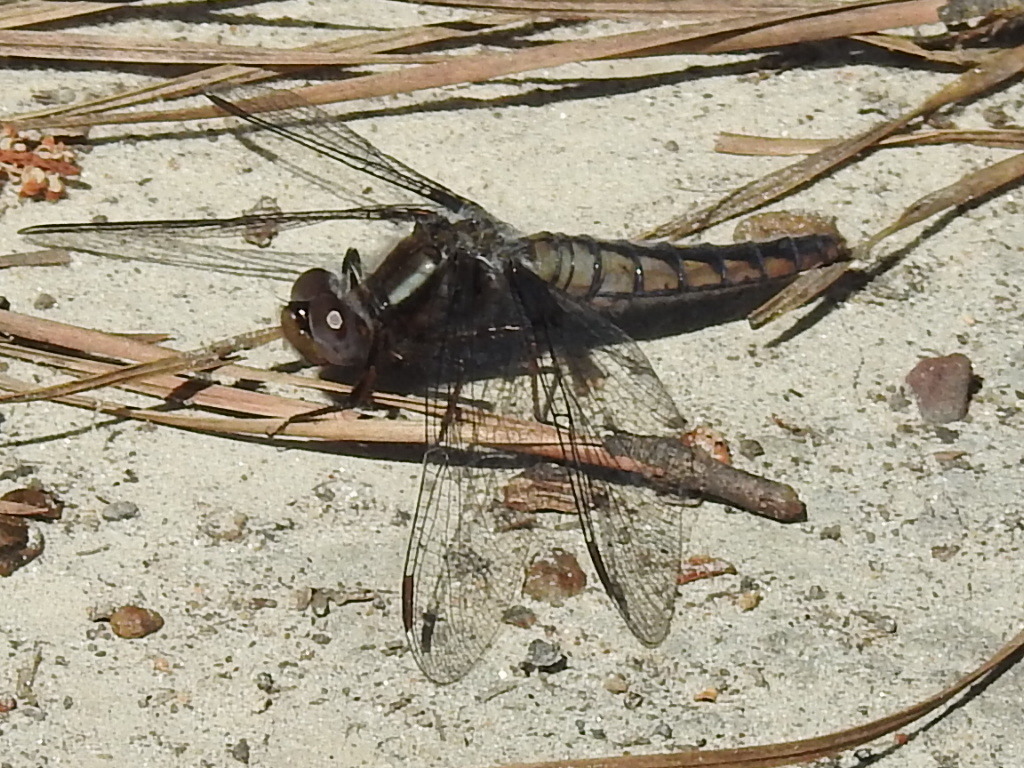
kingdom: Animalia
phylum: Arthropoda
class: Insecta
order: Odonata
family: Libellulidae
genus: Ladona
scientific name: Ladona deplanata
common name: Blue corporal
